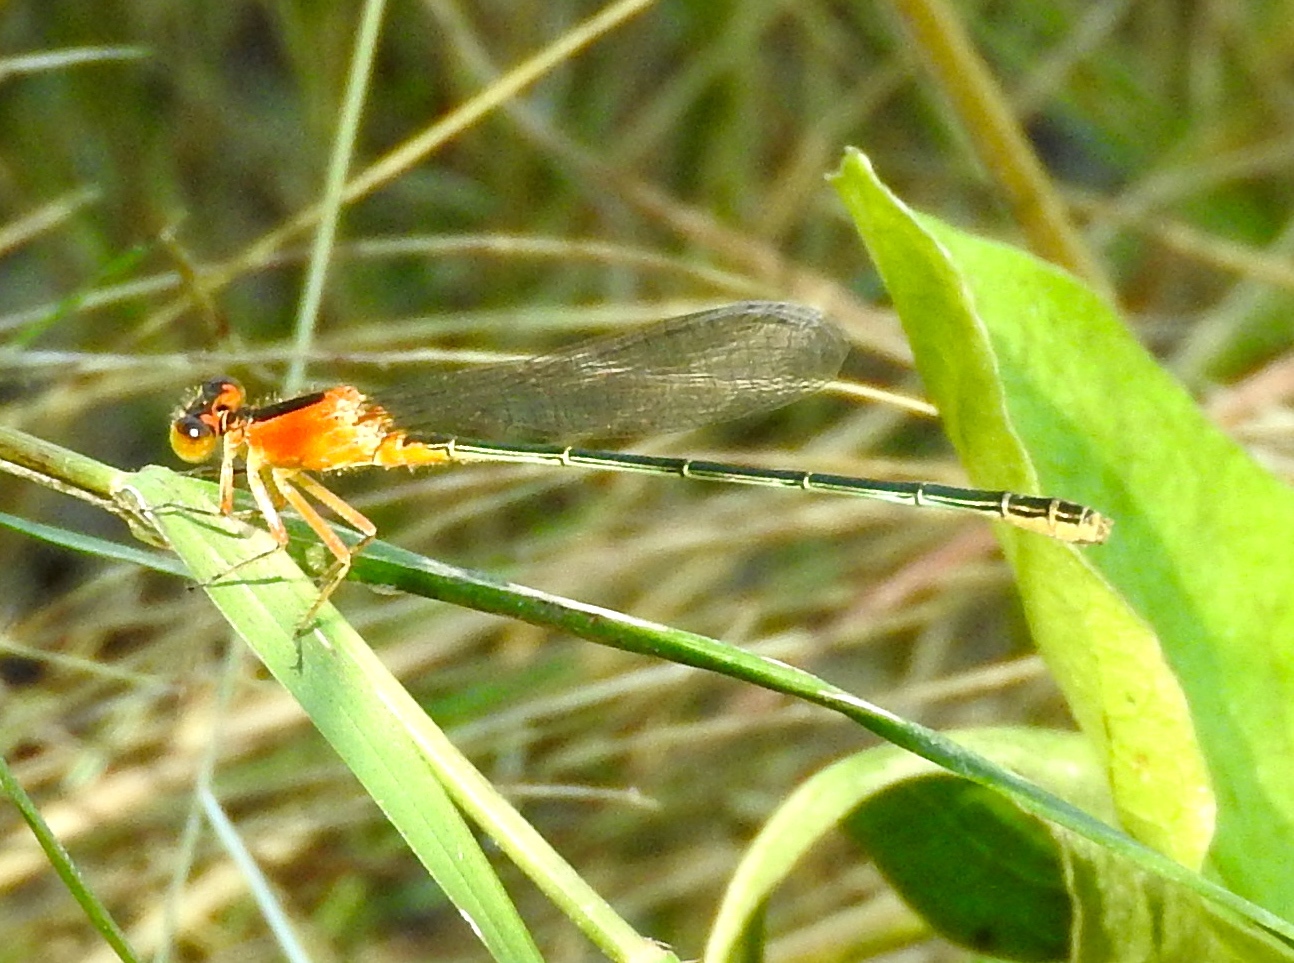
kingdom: Animalia
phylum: Arthropoda
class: Insecta
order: Odonata
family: Coenagrionidae
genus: Ischnura
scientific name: Ischnura ramburii
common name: Rambur's forktail
